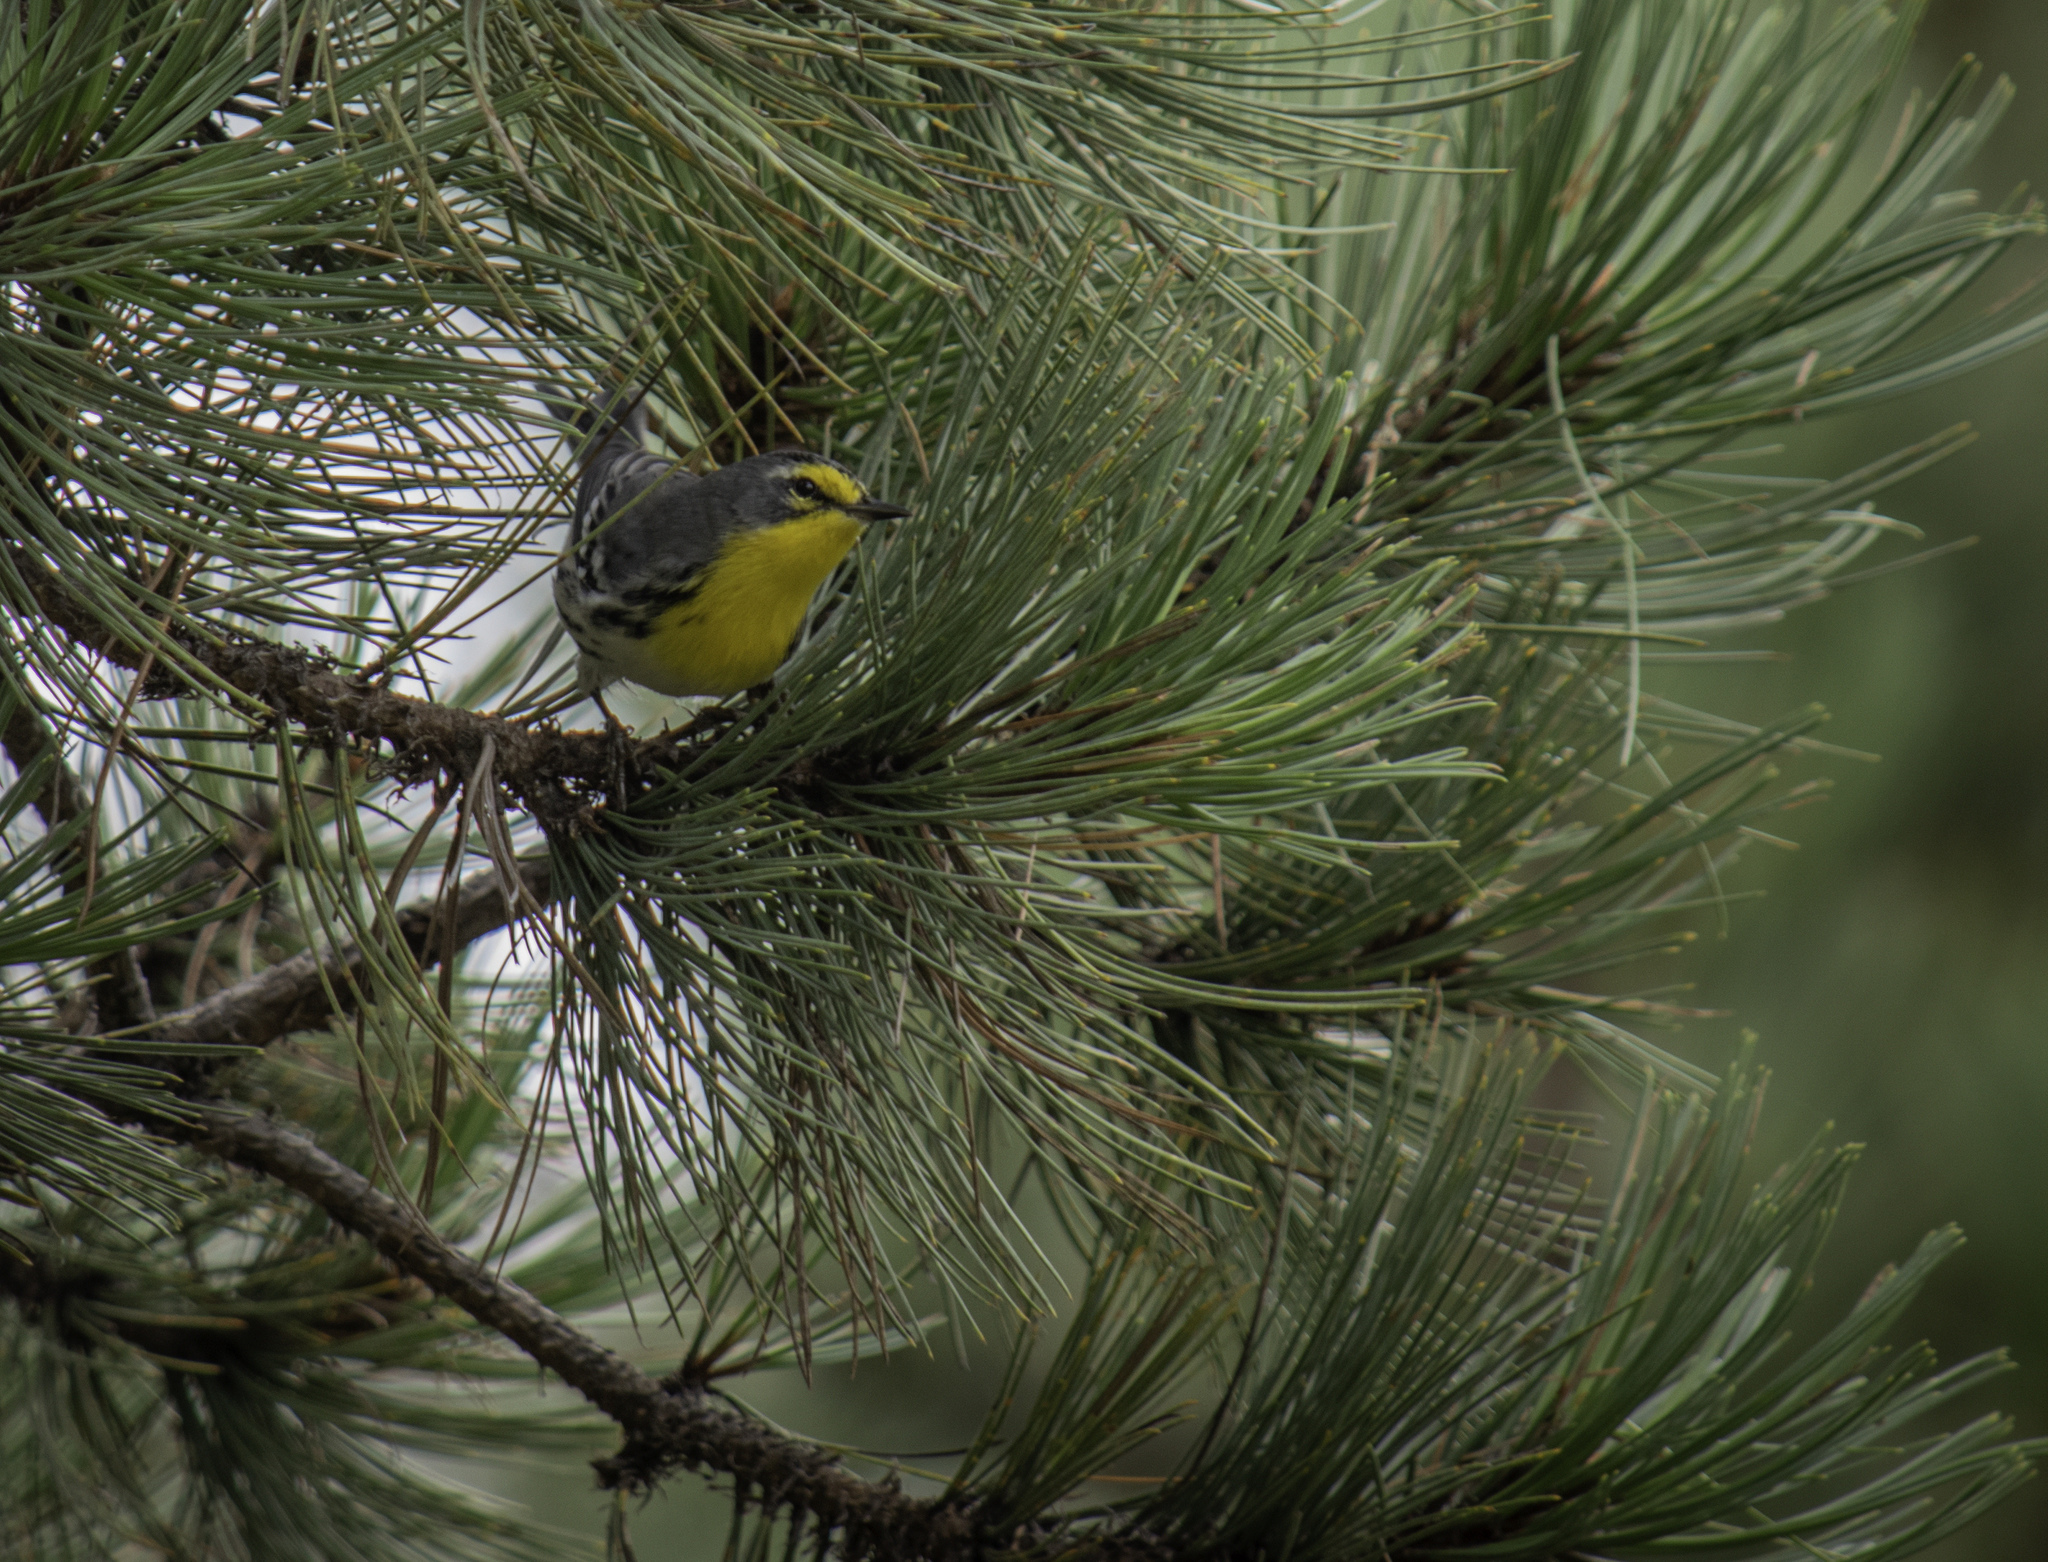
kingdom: Animalia
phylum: Chordata
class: Aves
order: Passeriformes
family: Parulidae
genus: Setophaga
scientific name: Setophaga graciae
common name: Grace's warbler
